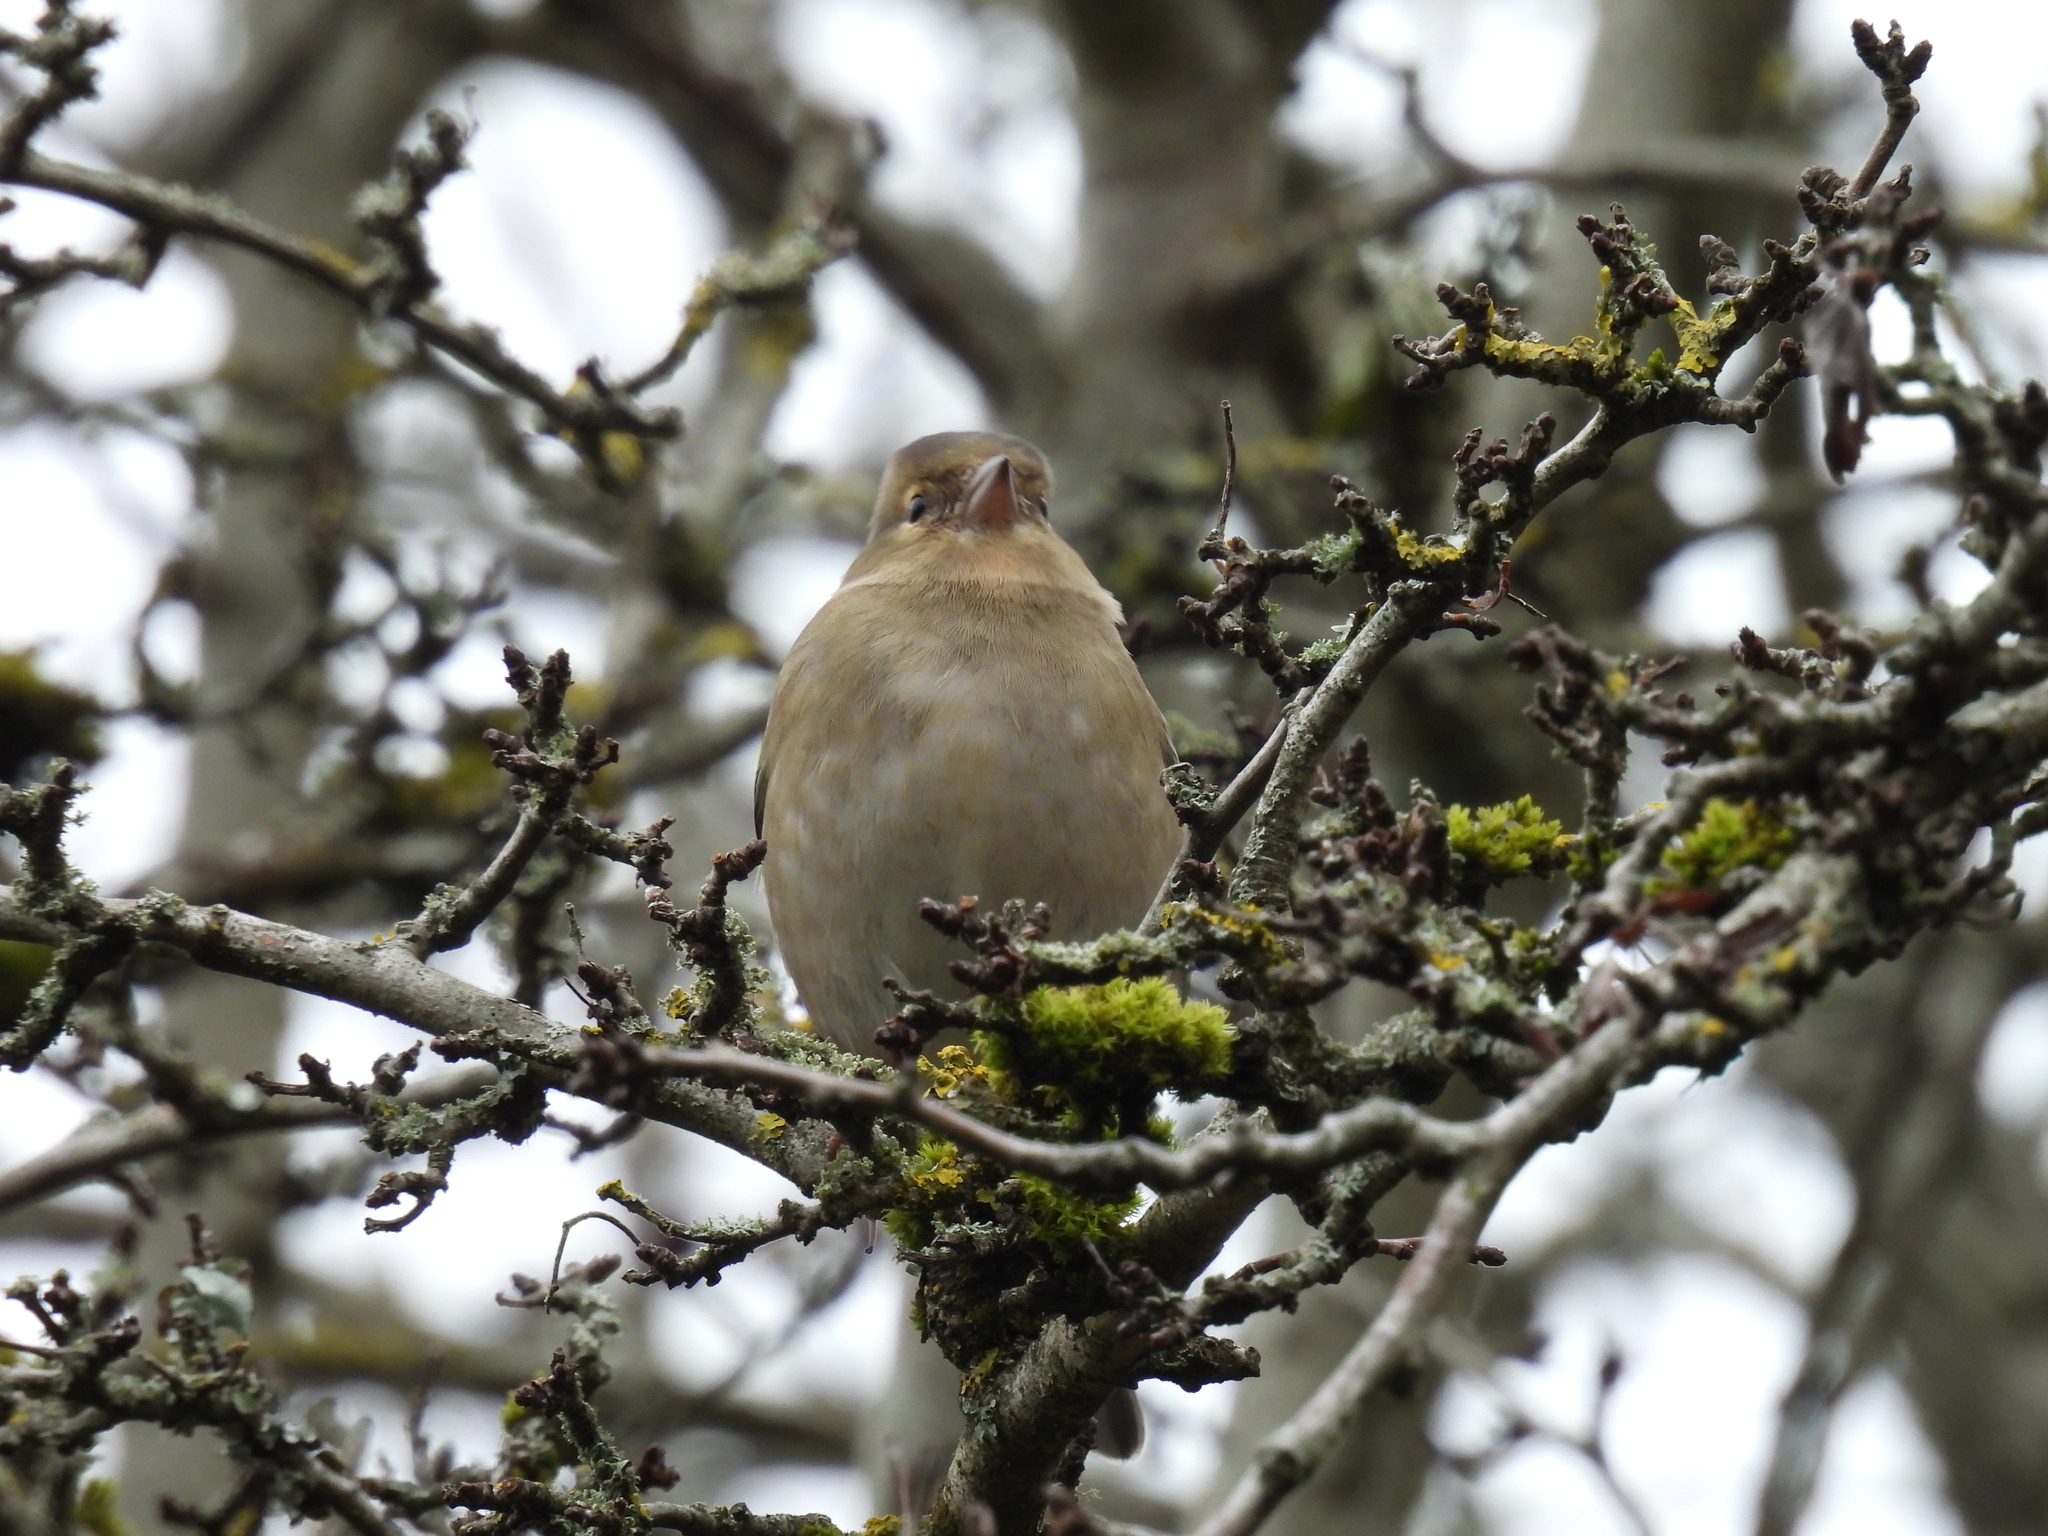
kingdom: Animalia
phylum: Chordata
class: Aves
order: Passeriformes
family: Fringillidae
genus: Fringilla
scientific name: Fringilla coelebs
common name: Common chaffinch
